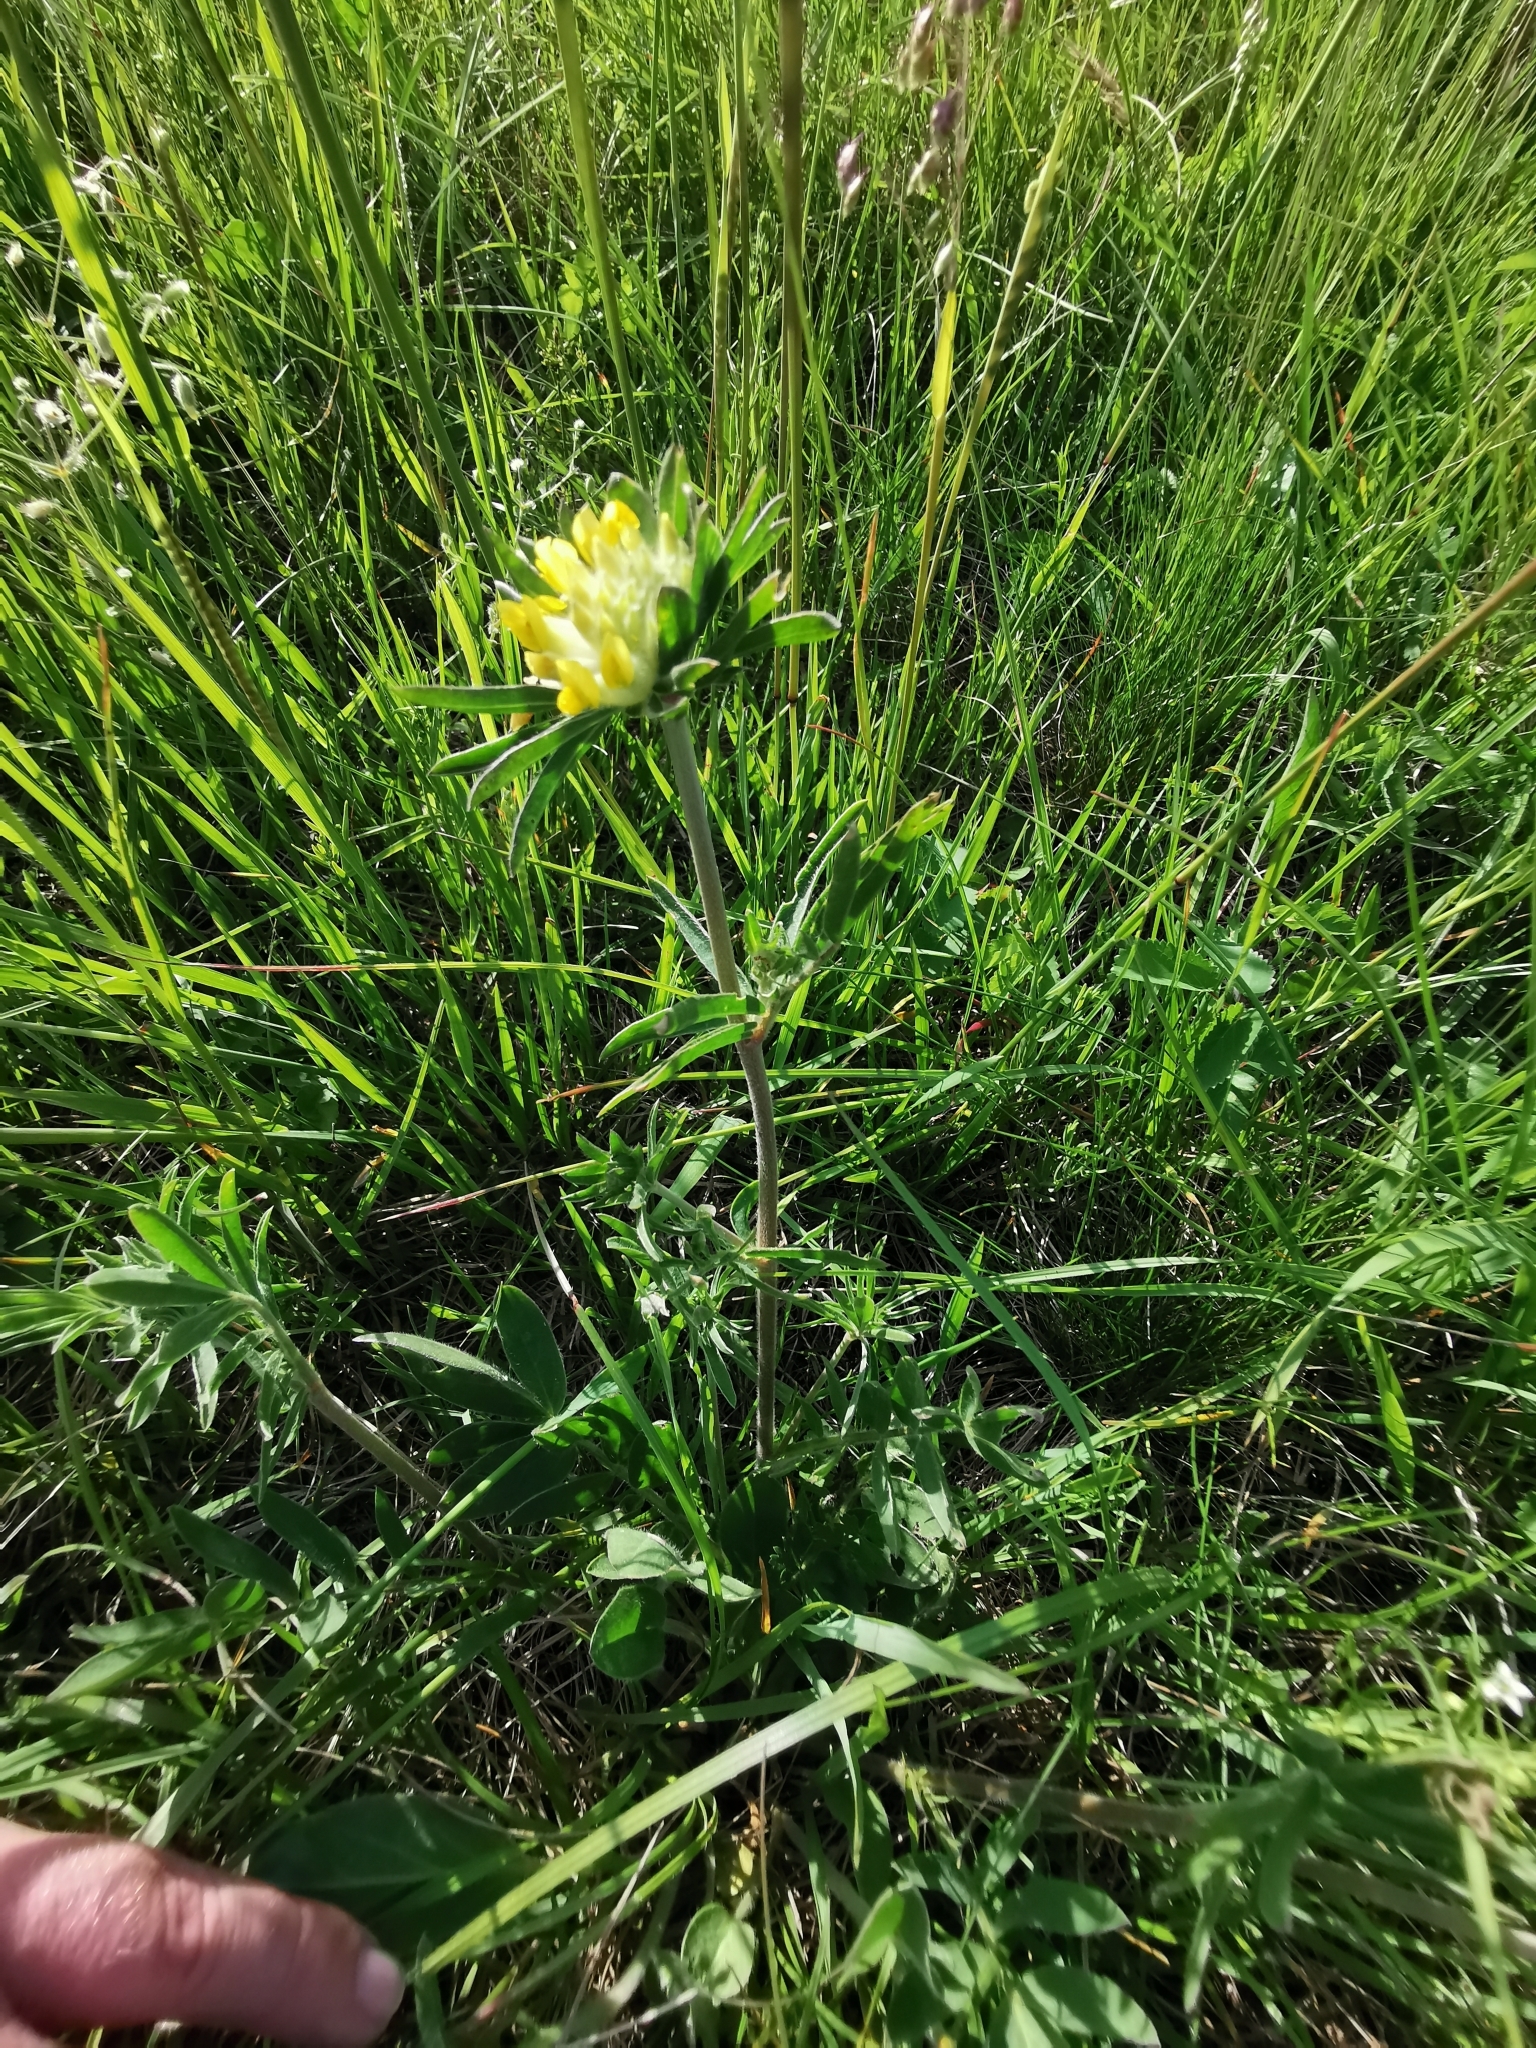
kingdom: Plantae
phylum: Tracheophyta
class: Magnoliopsida
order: Fabales
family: Fabaceae
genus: Anthyllis
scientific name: Anthyllis vulneraria
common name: Kidney vetch
